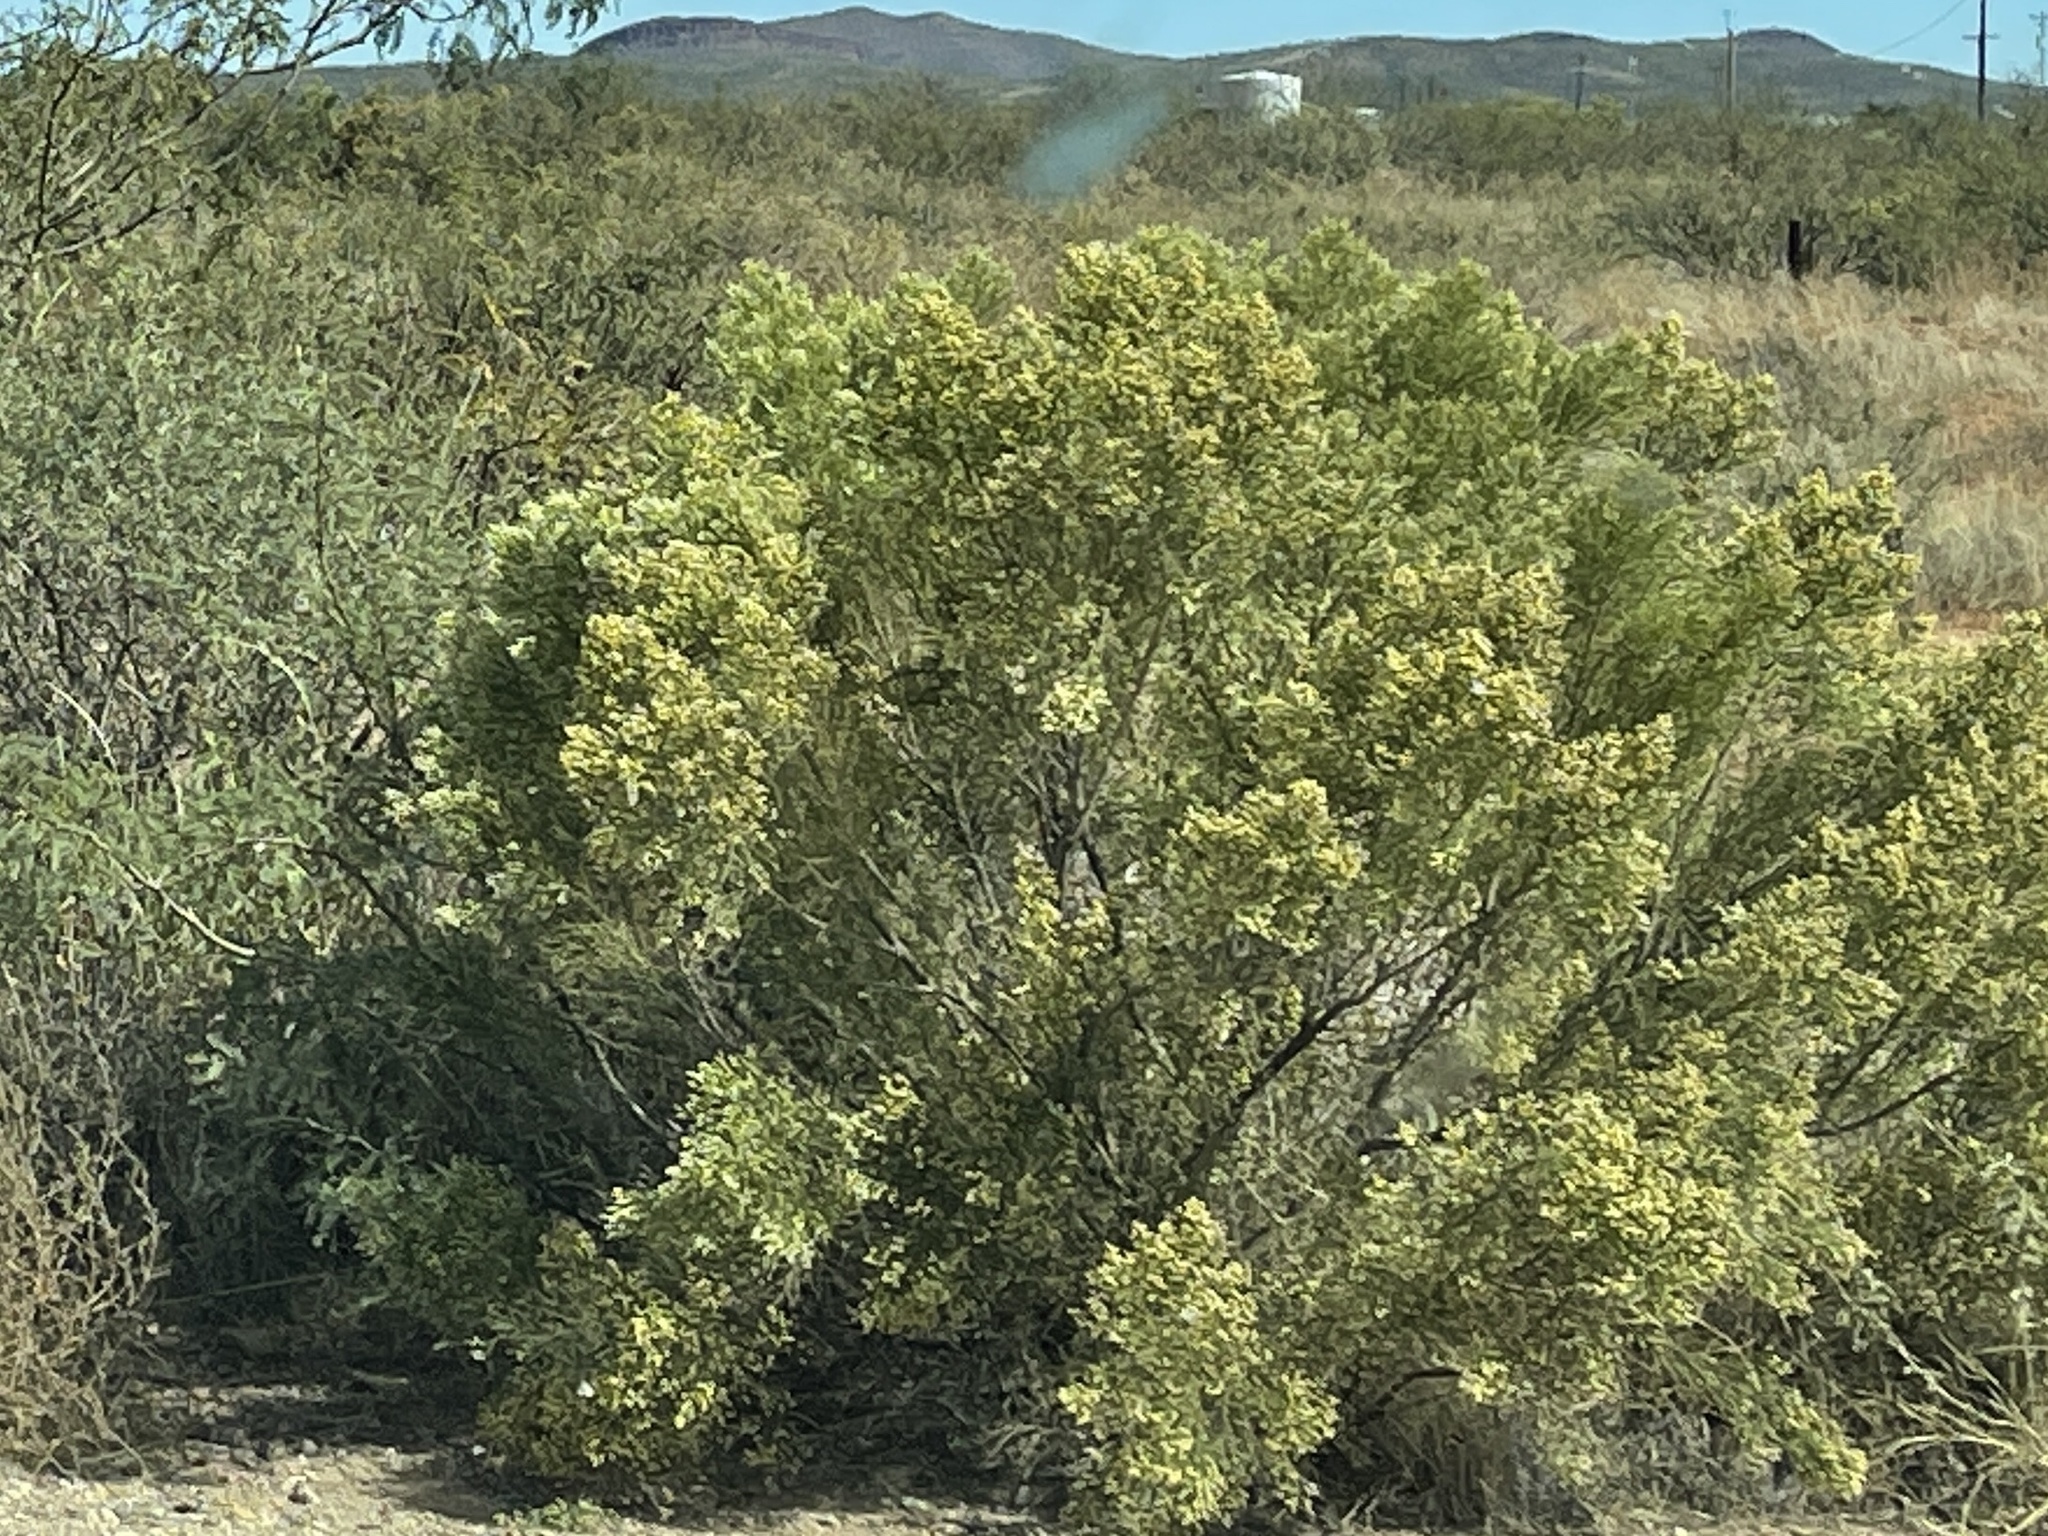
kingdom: Plantae
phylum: Tracheophyta
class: Magnoliopsida
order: Asterales
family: Asteraceae
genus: Baccharis
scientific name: Baccharis sarothroides
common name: Desert-broom
